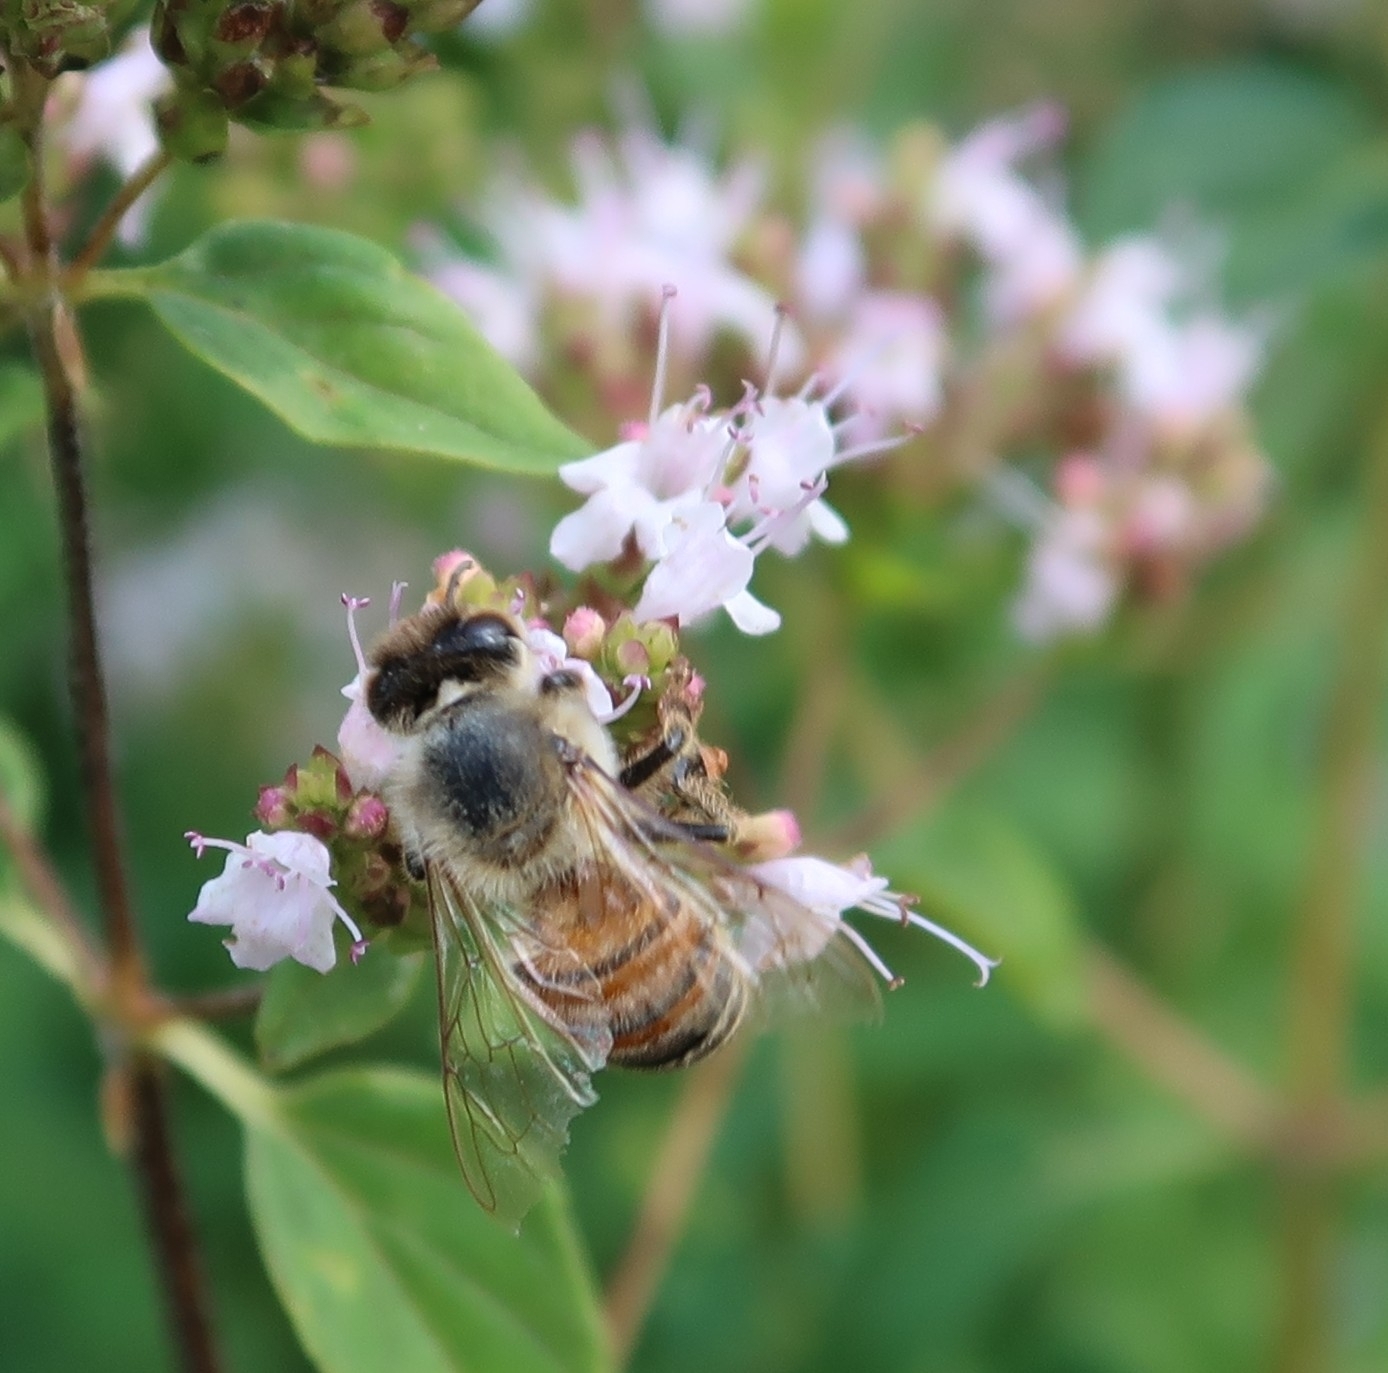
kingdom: Animalia
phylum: Arthropoda
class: Insecta
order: Hymenoptera
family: Apidae
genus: Apis
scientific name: Apis mellifera
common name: Honey bee
